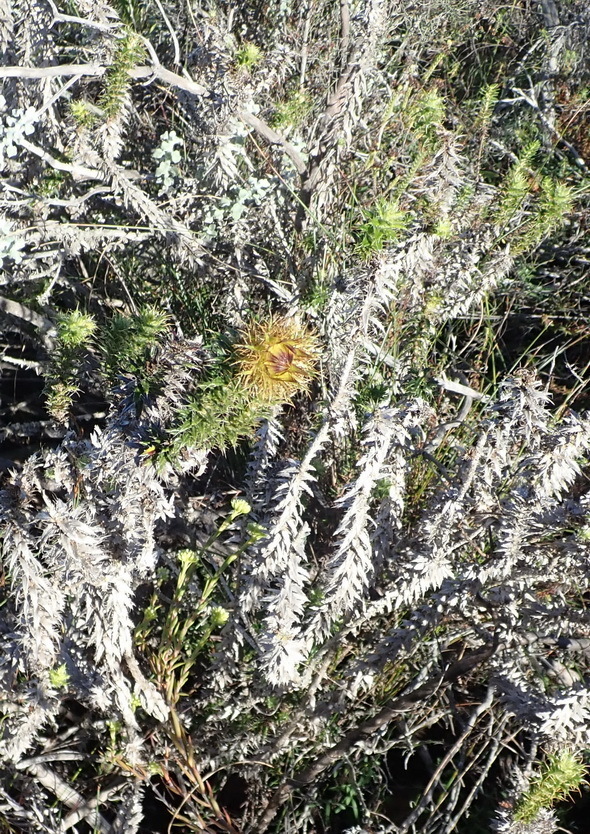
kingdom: Plantae
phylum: Tracheophyta
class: Magnoliopsida
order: Asterales
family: Asteraceae
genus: Cullumia
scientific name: Cullumia carlinoides
